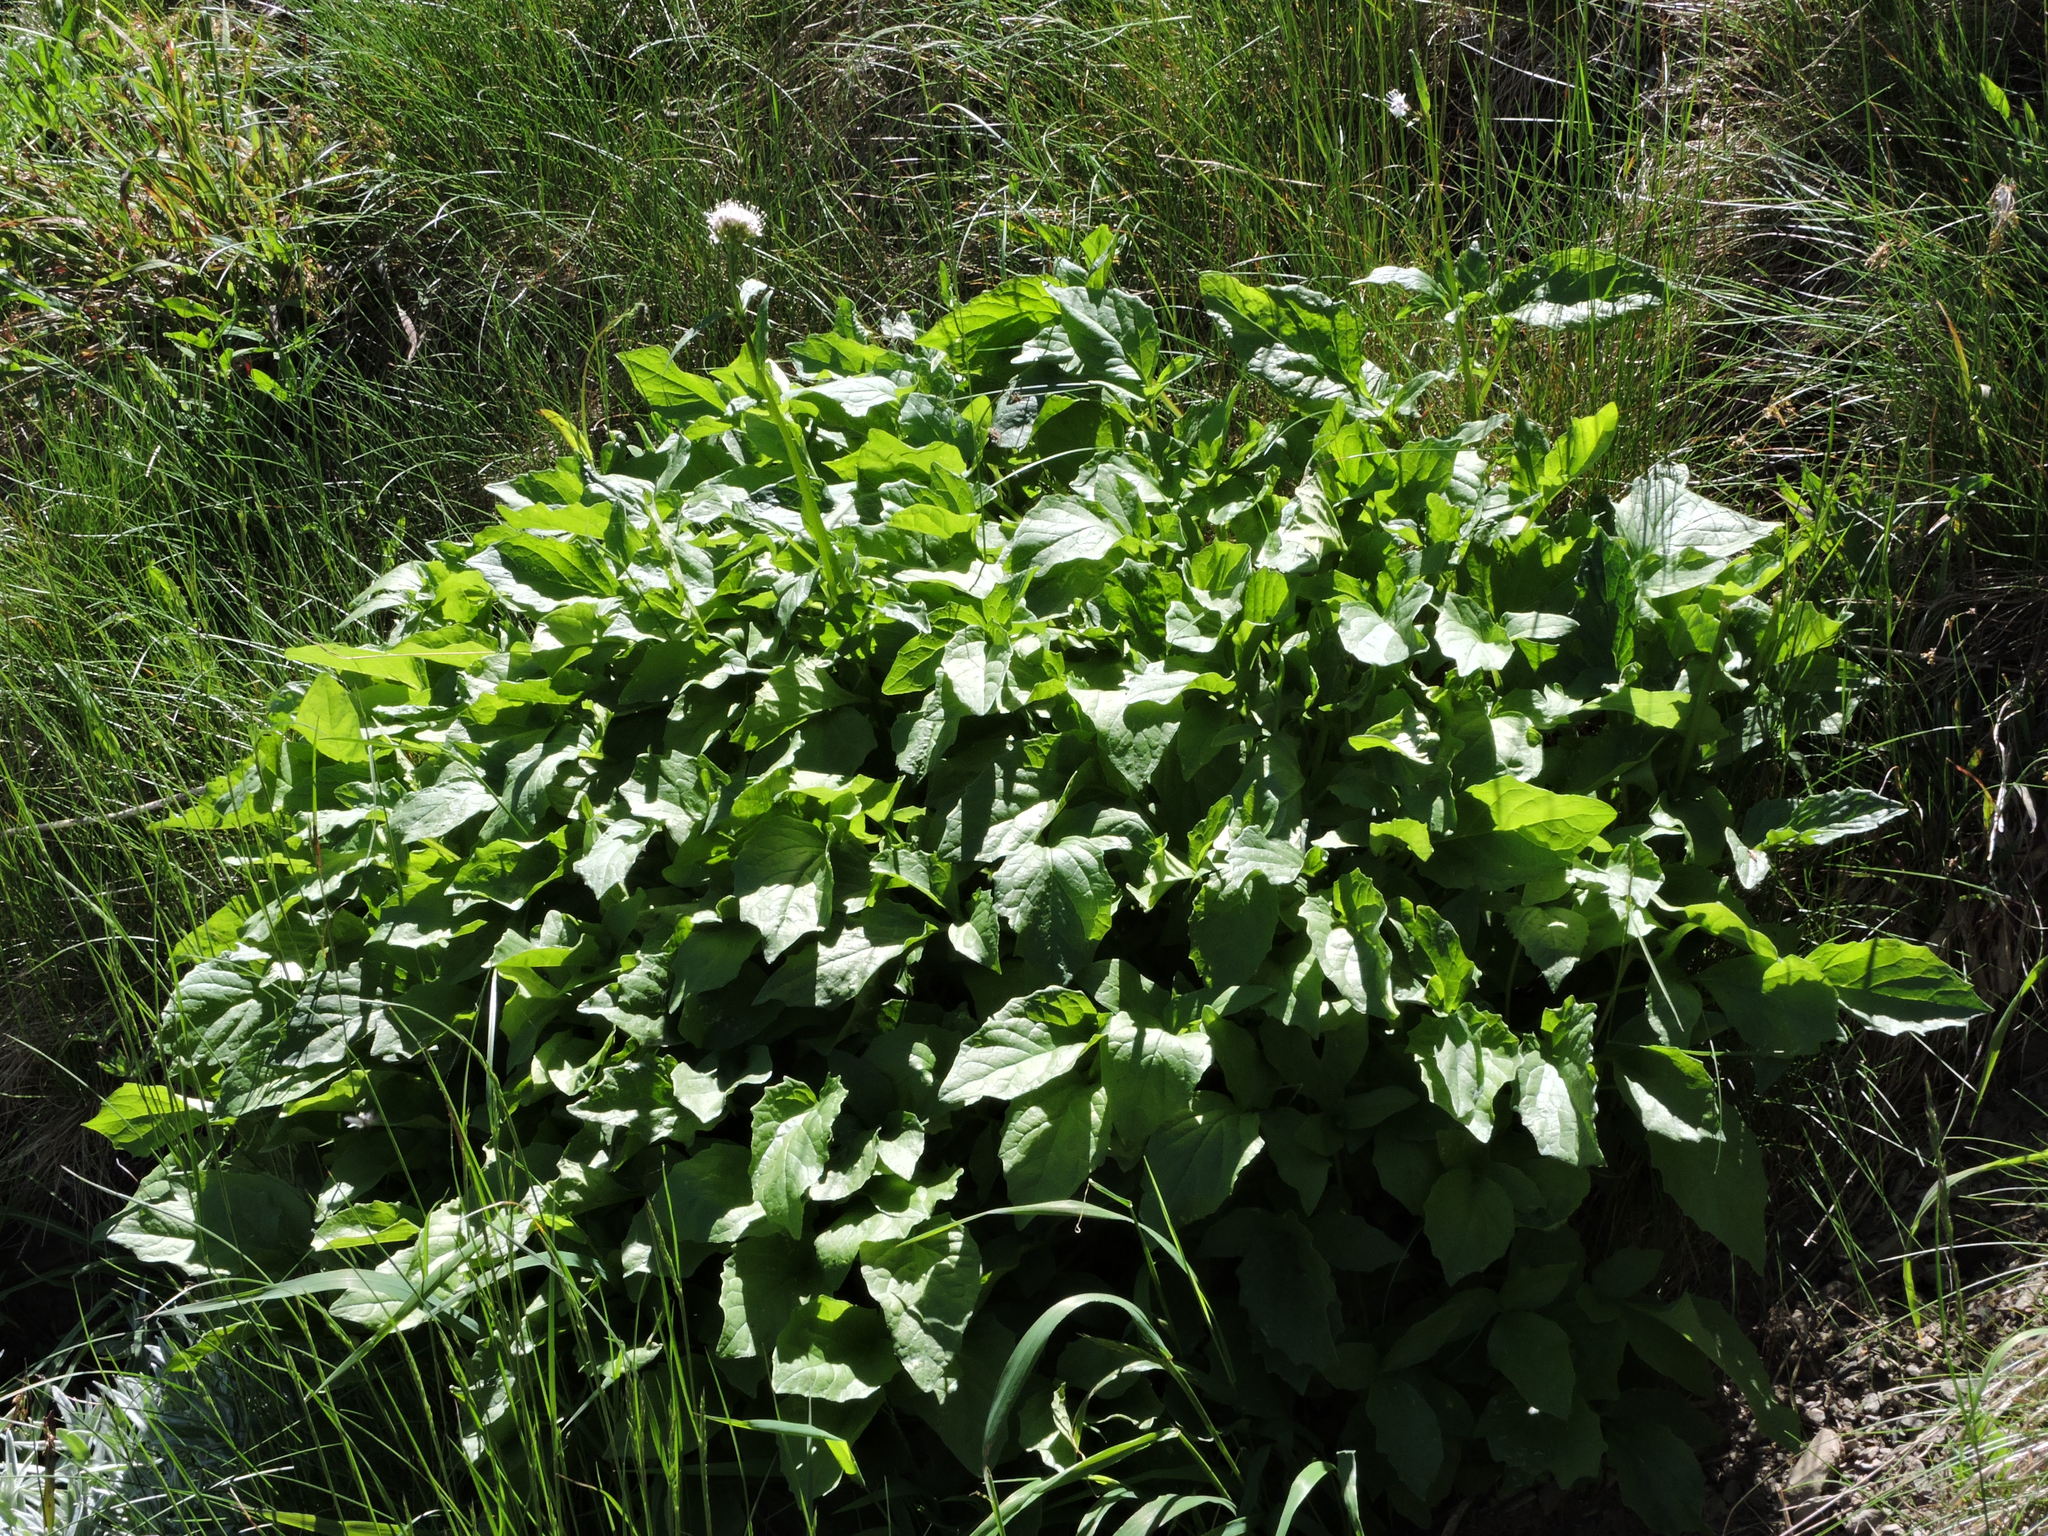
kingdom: Plantae
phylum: Tracheophyta
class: Magnoliopsida
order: Dipsacales
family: Caprifoliaceae
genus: Valeriana
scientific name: Valeriana sitchensis
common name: Pacific valerian
